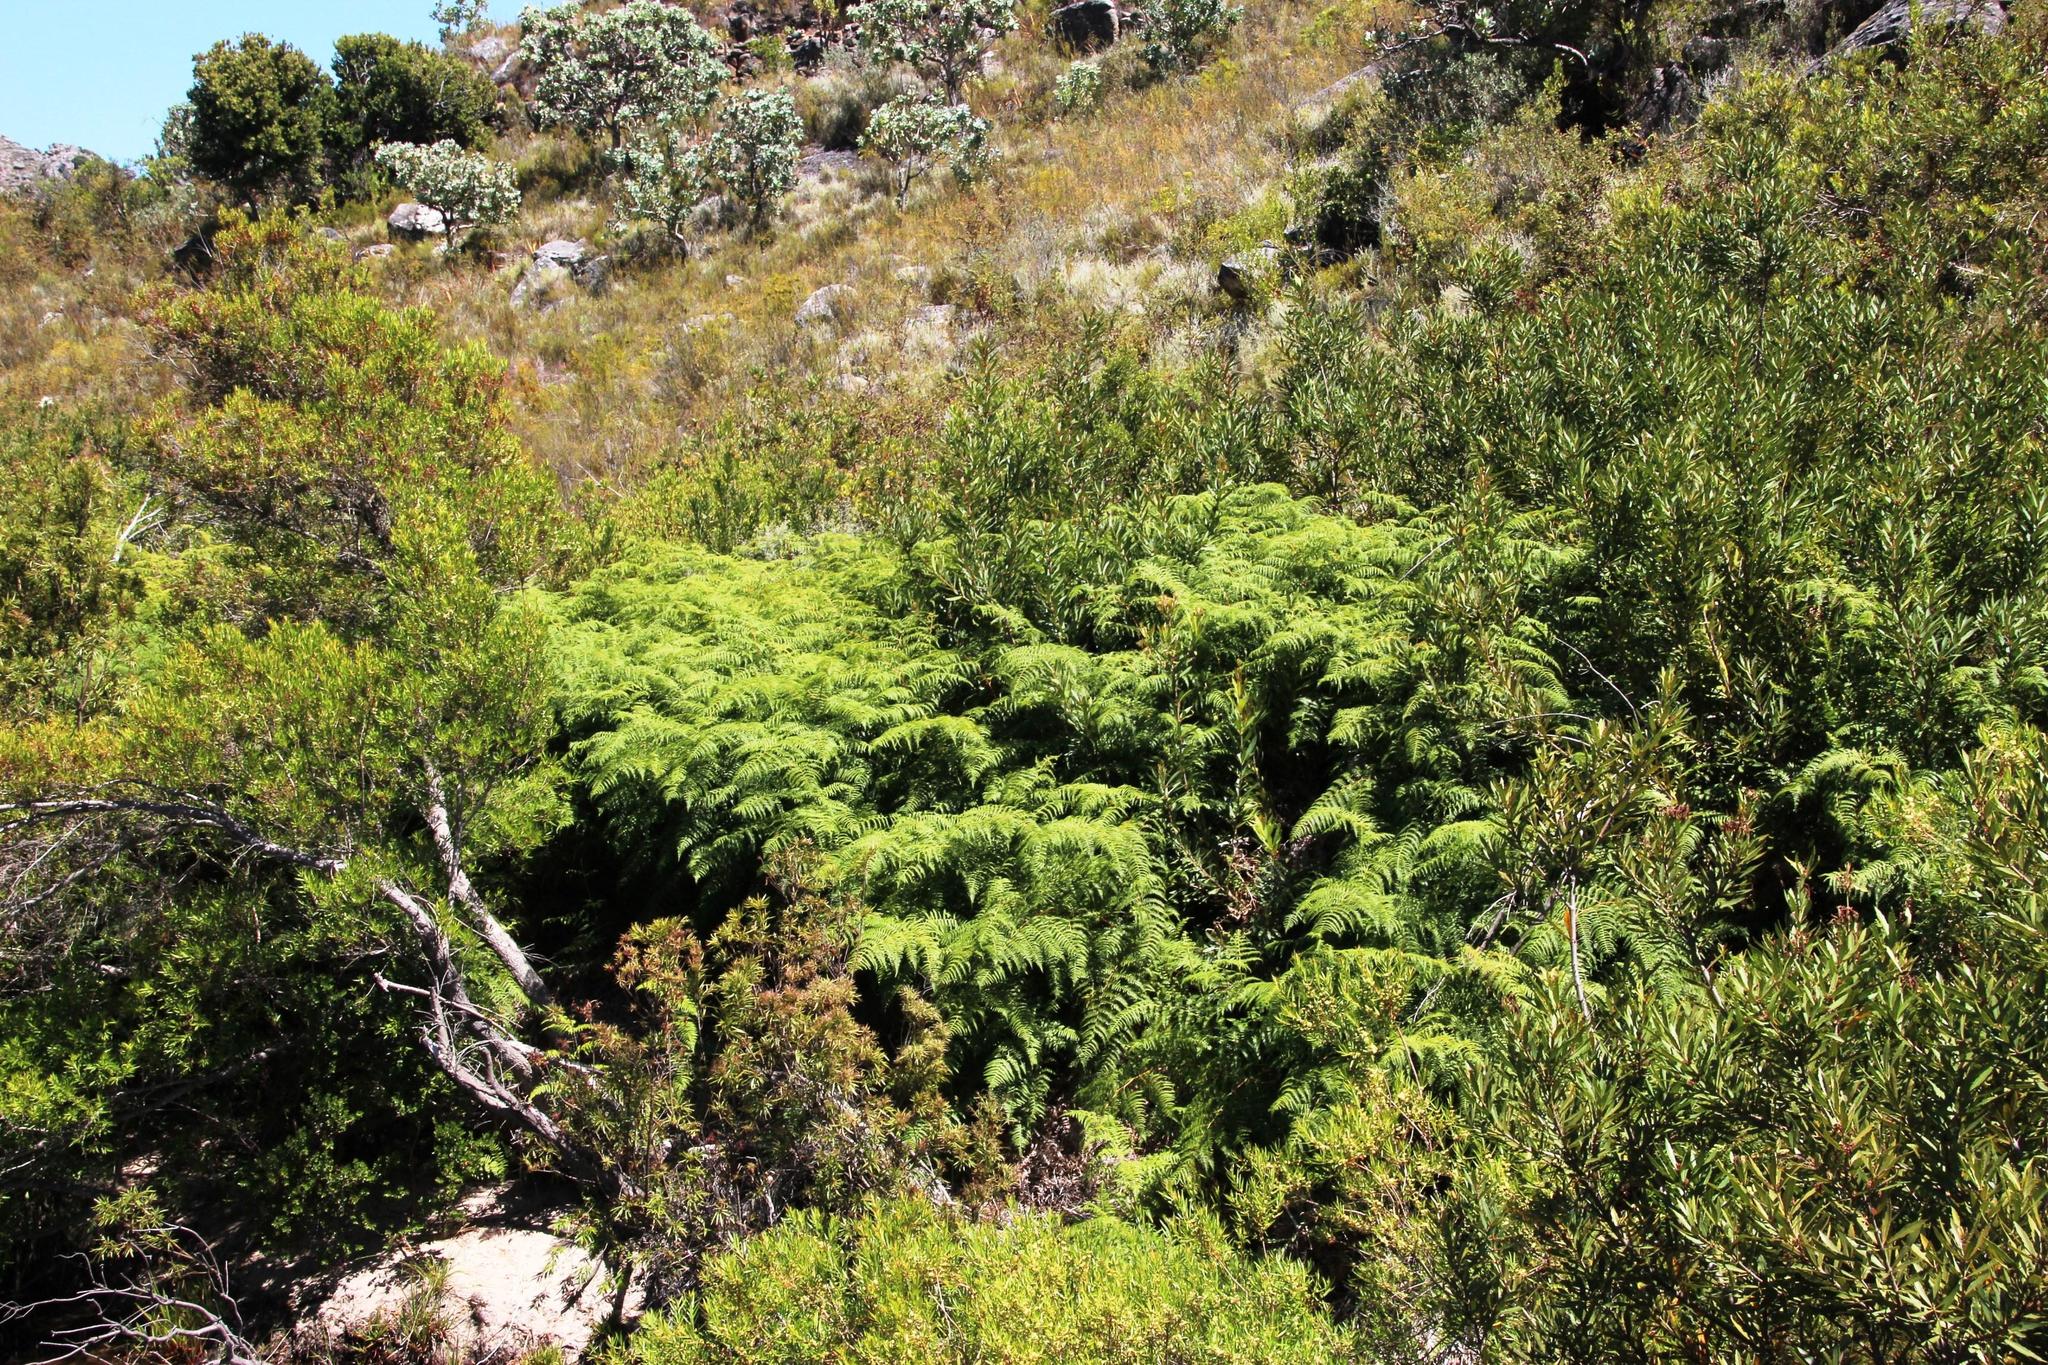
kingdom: Plantae
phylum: Tracheophyta
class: Polypodiopsida
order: Polypodiales
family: Dennstaedtiaceae
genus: Pteridium
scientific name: Pteridium aquilinum
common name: Bracken
